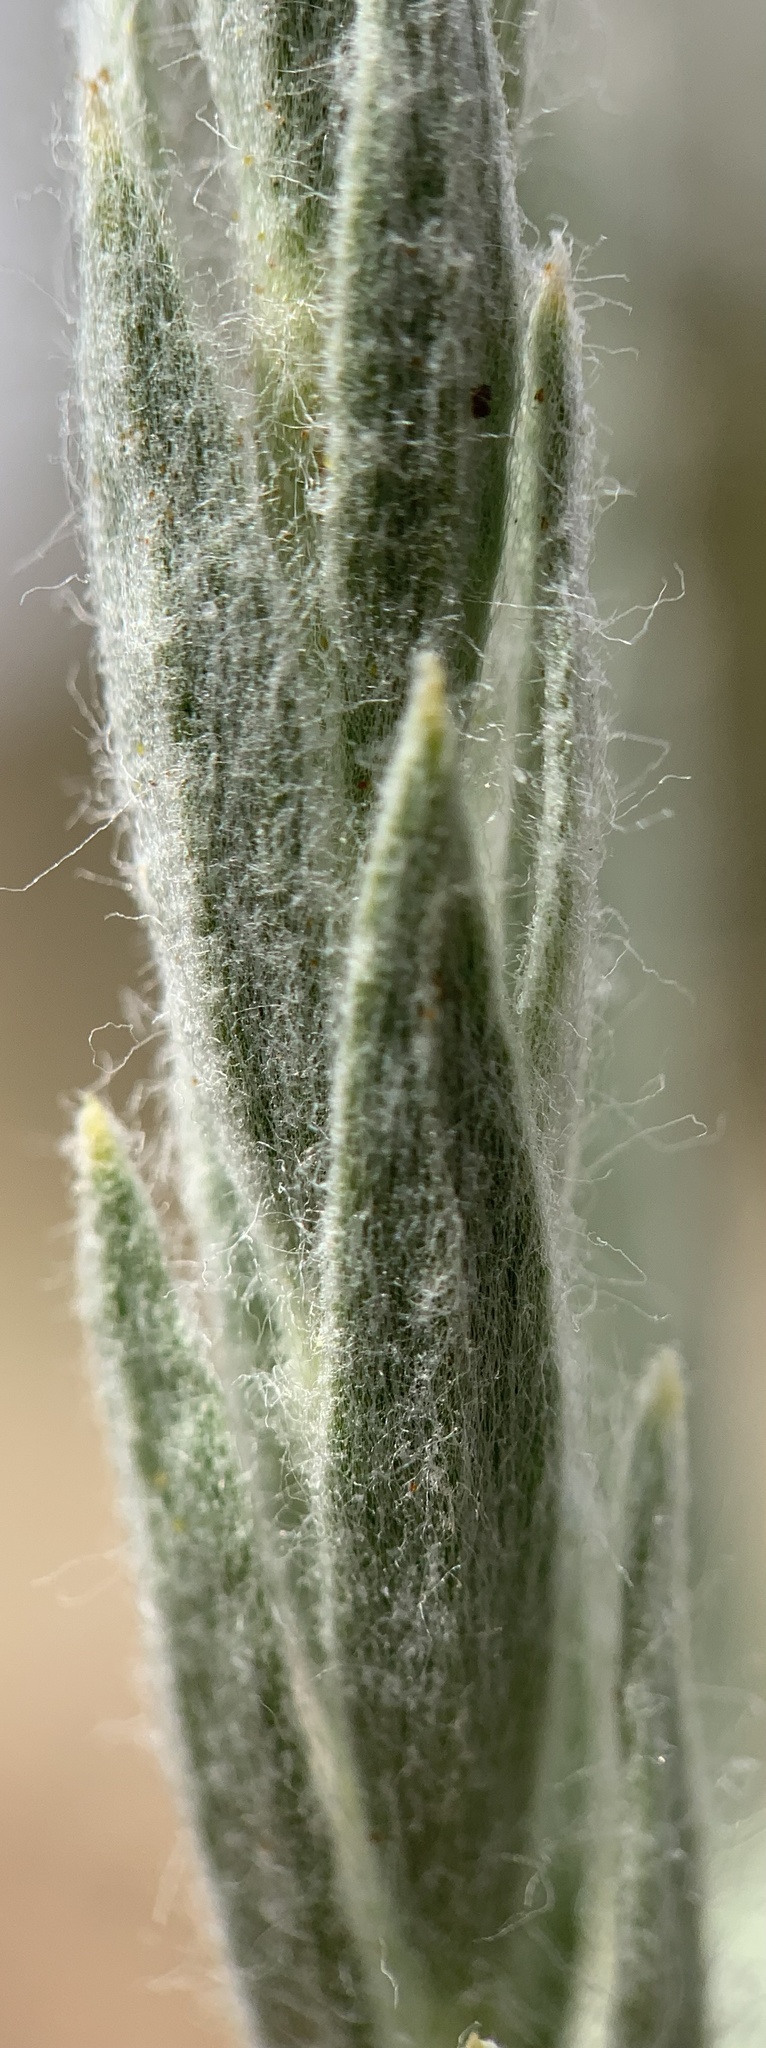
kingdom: Plantae
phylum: Tracheophyta
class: Magnoliopsida
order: Asterales
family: Asteraceae
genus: Tetradymia
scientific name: Tetradymia canescens
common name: Spineless horsebrush
